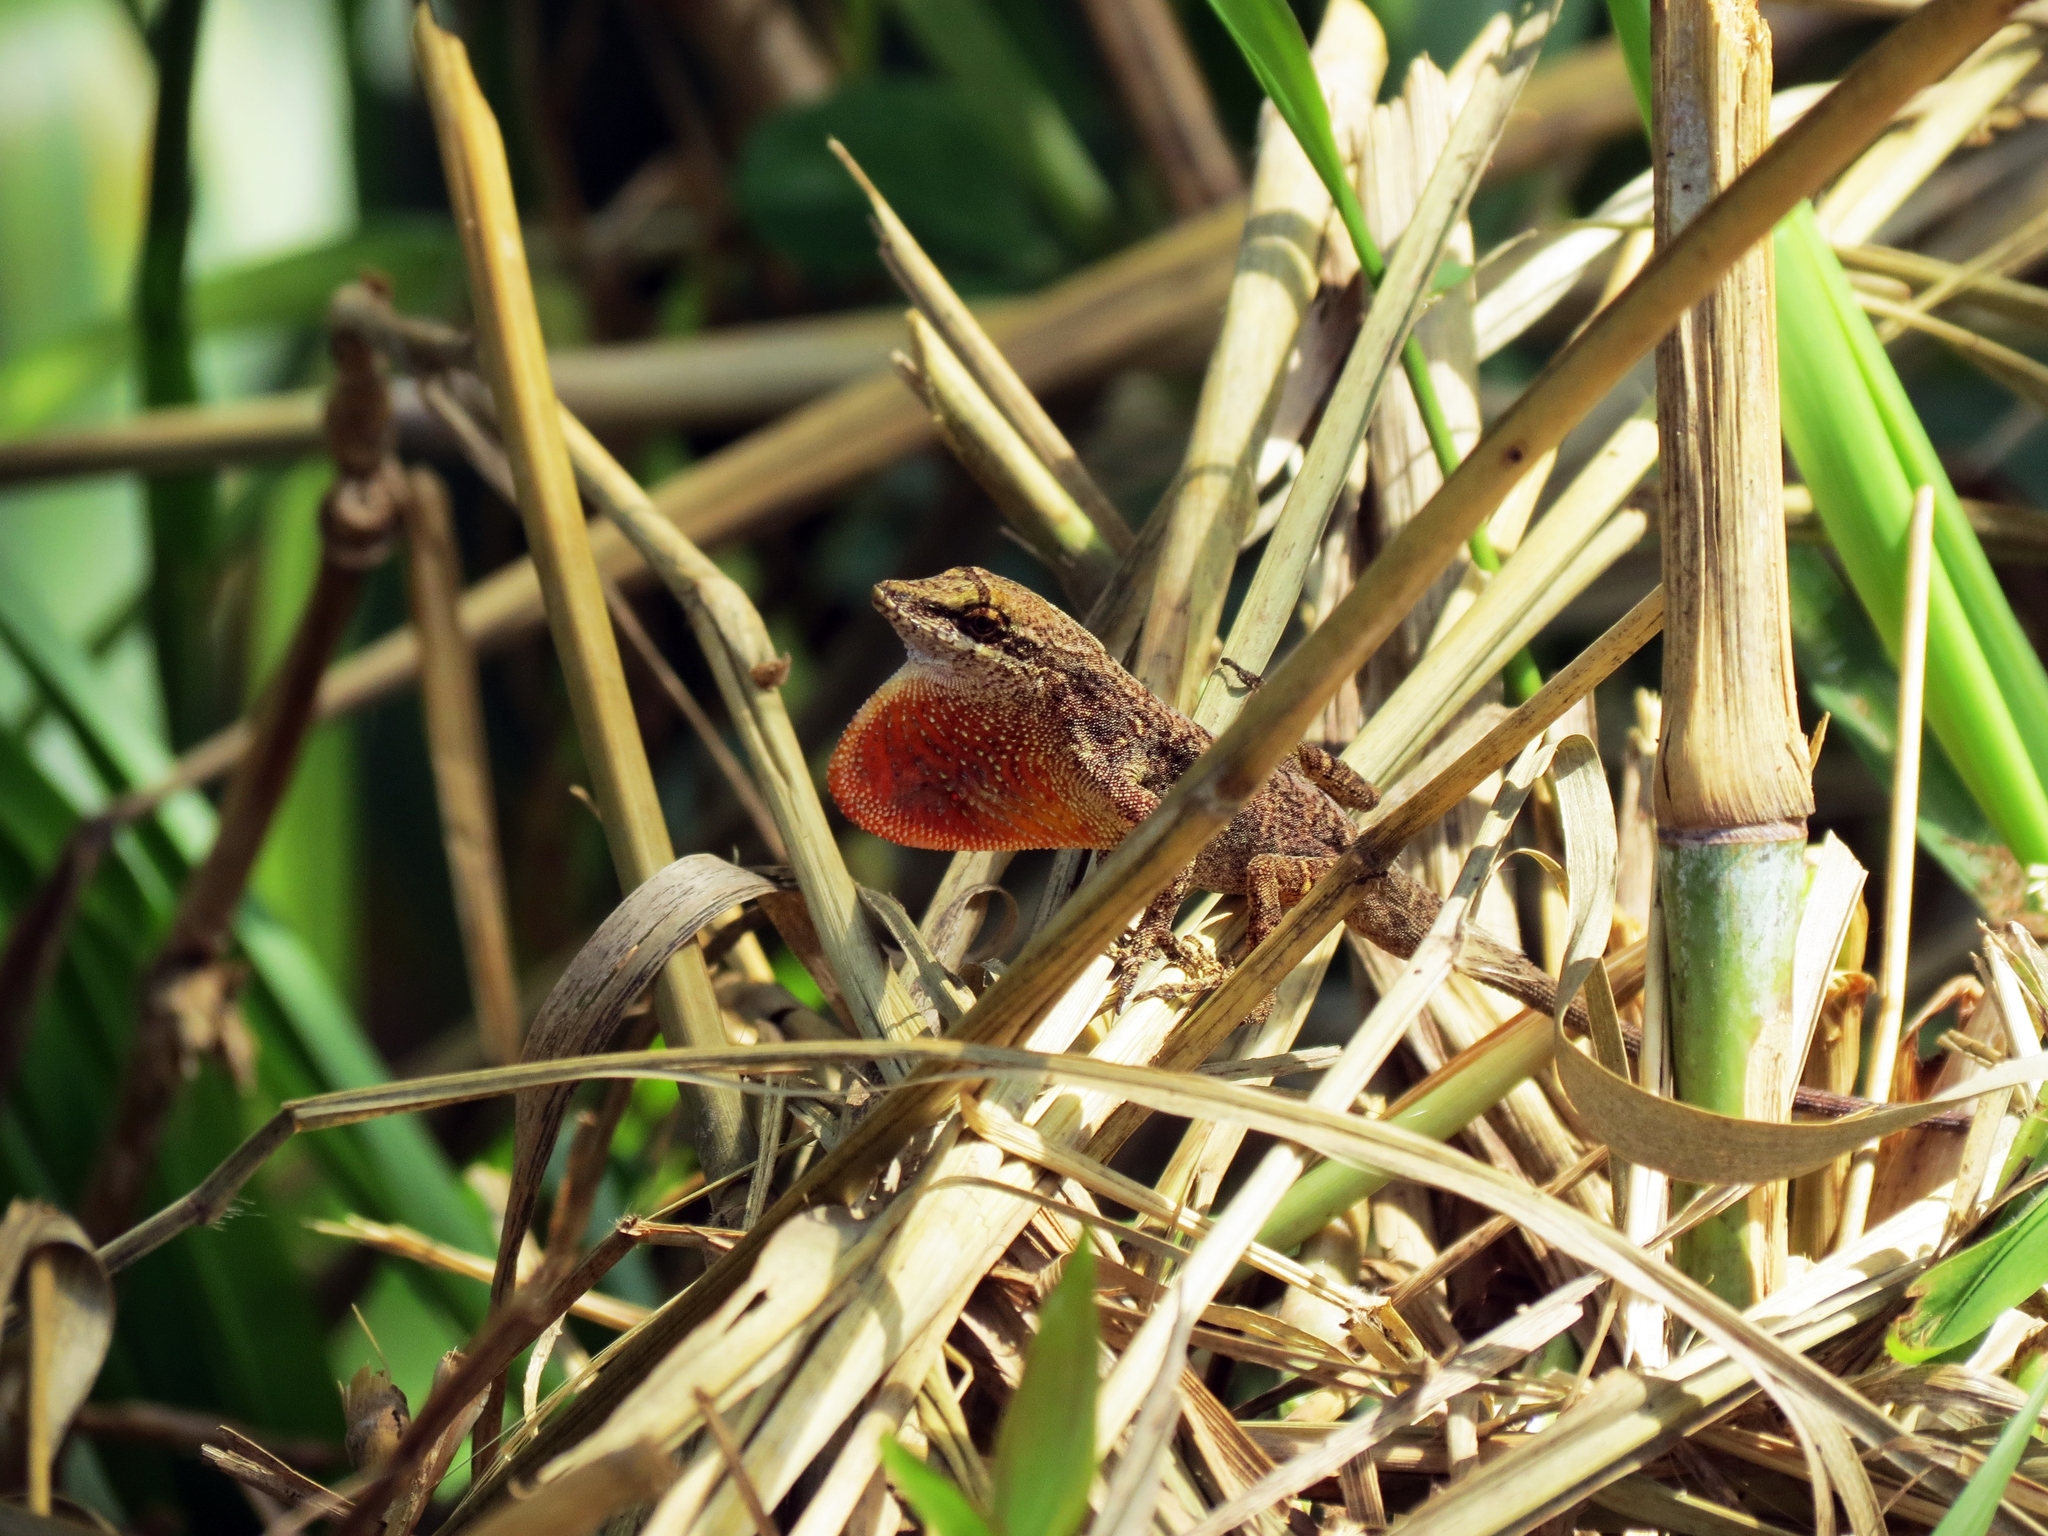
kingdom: Animalia
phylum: Chordata
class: Squamata
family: Dactyloidae
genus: Anolis
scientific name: Anolis mariarum
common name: Blemished anole
